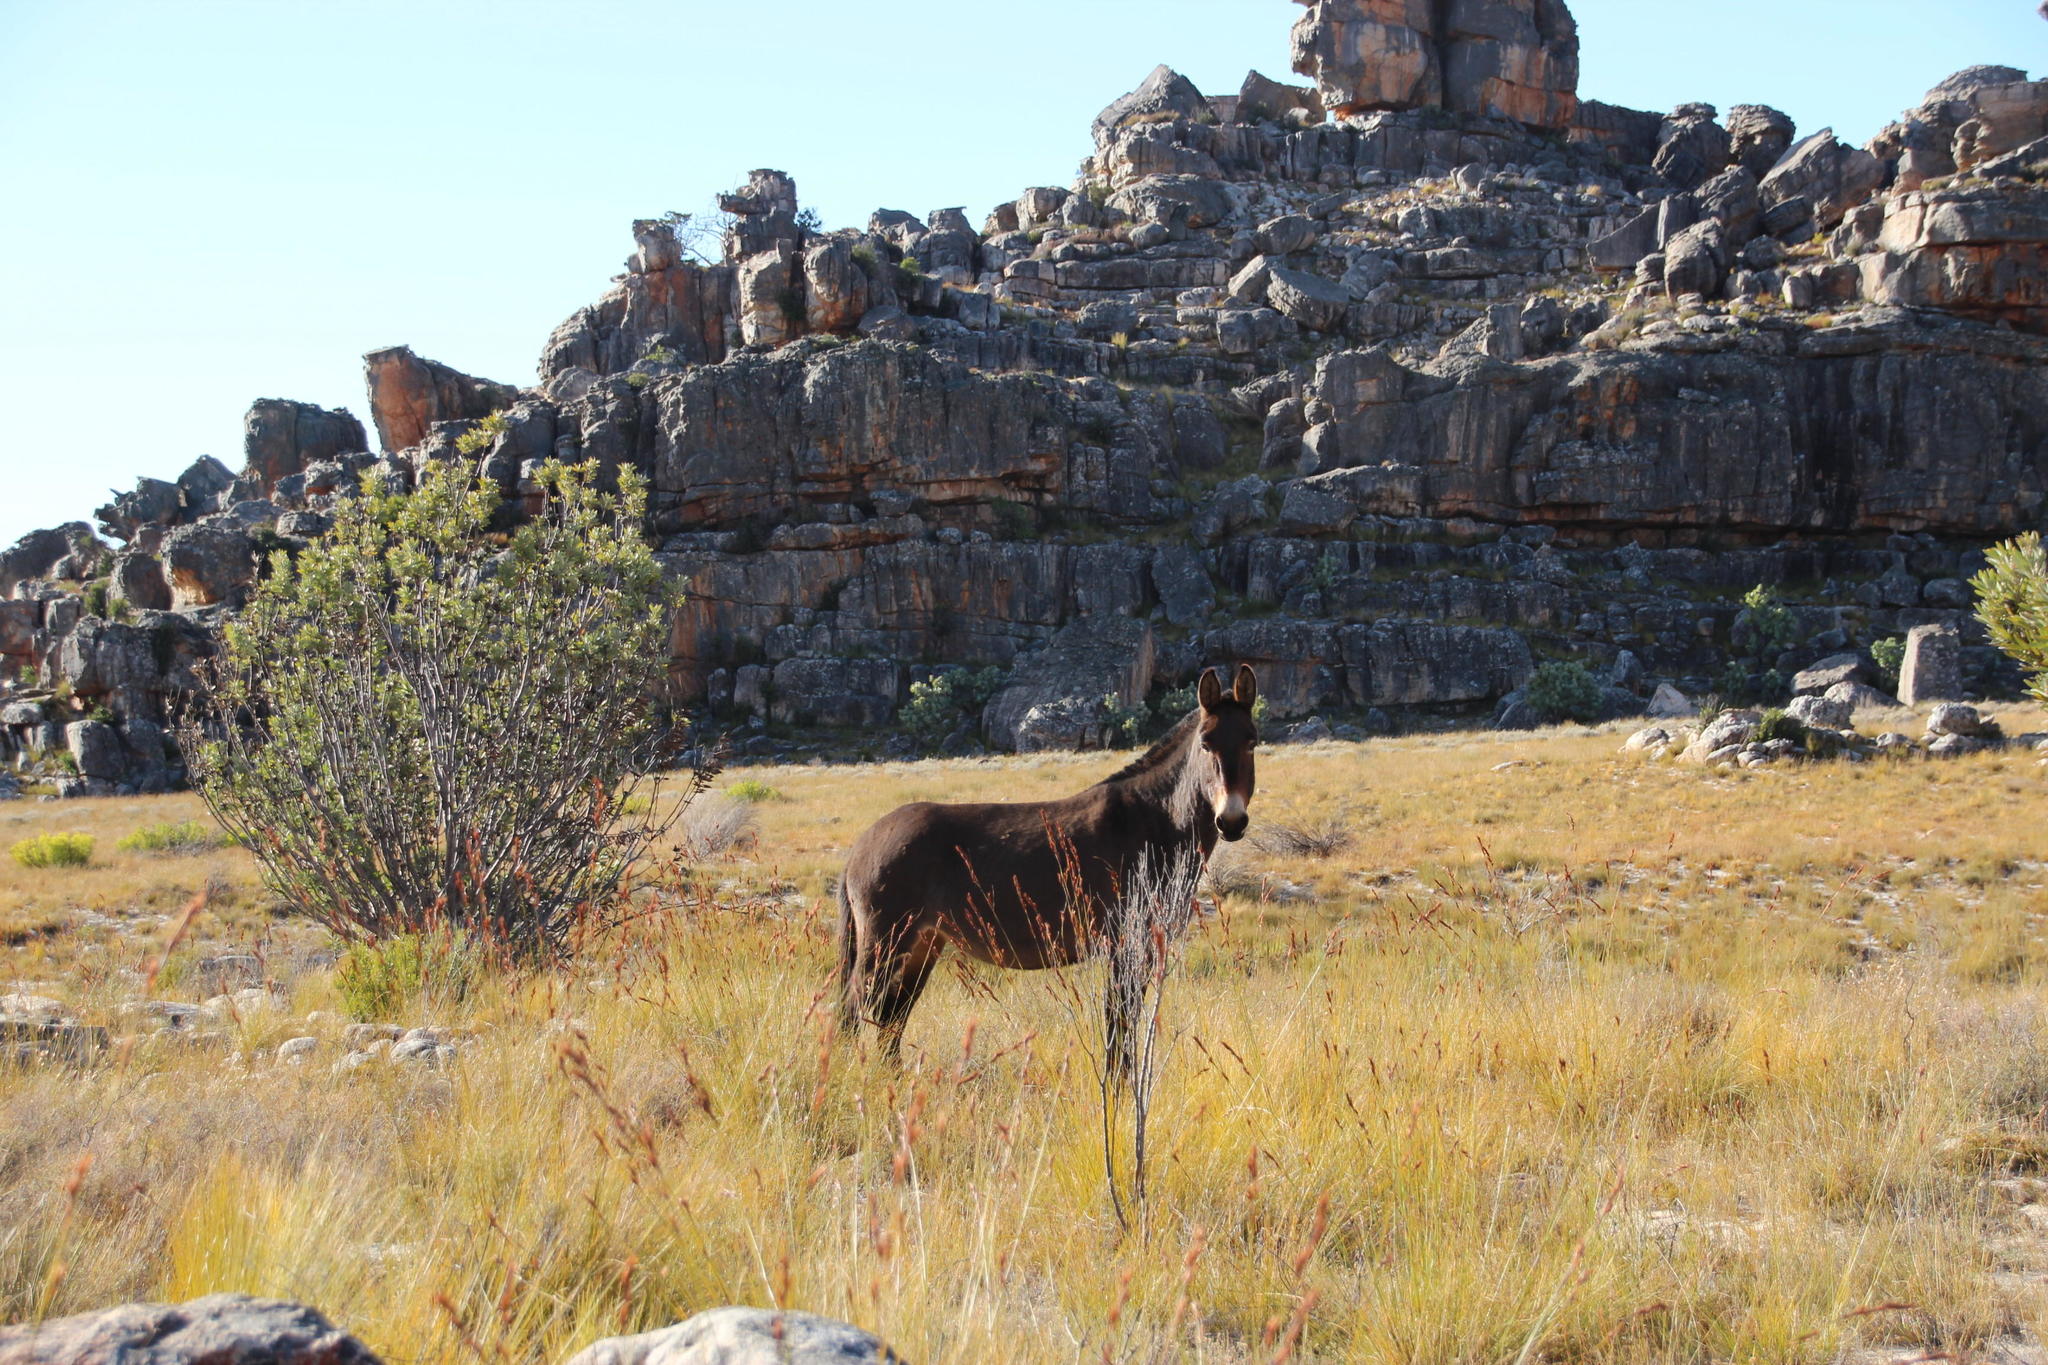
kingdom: Animalia
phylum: Chordata
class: Mammalia
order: Perissodactyla
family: Equidae
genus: Equus
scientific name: Equus
